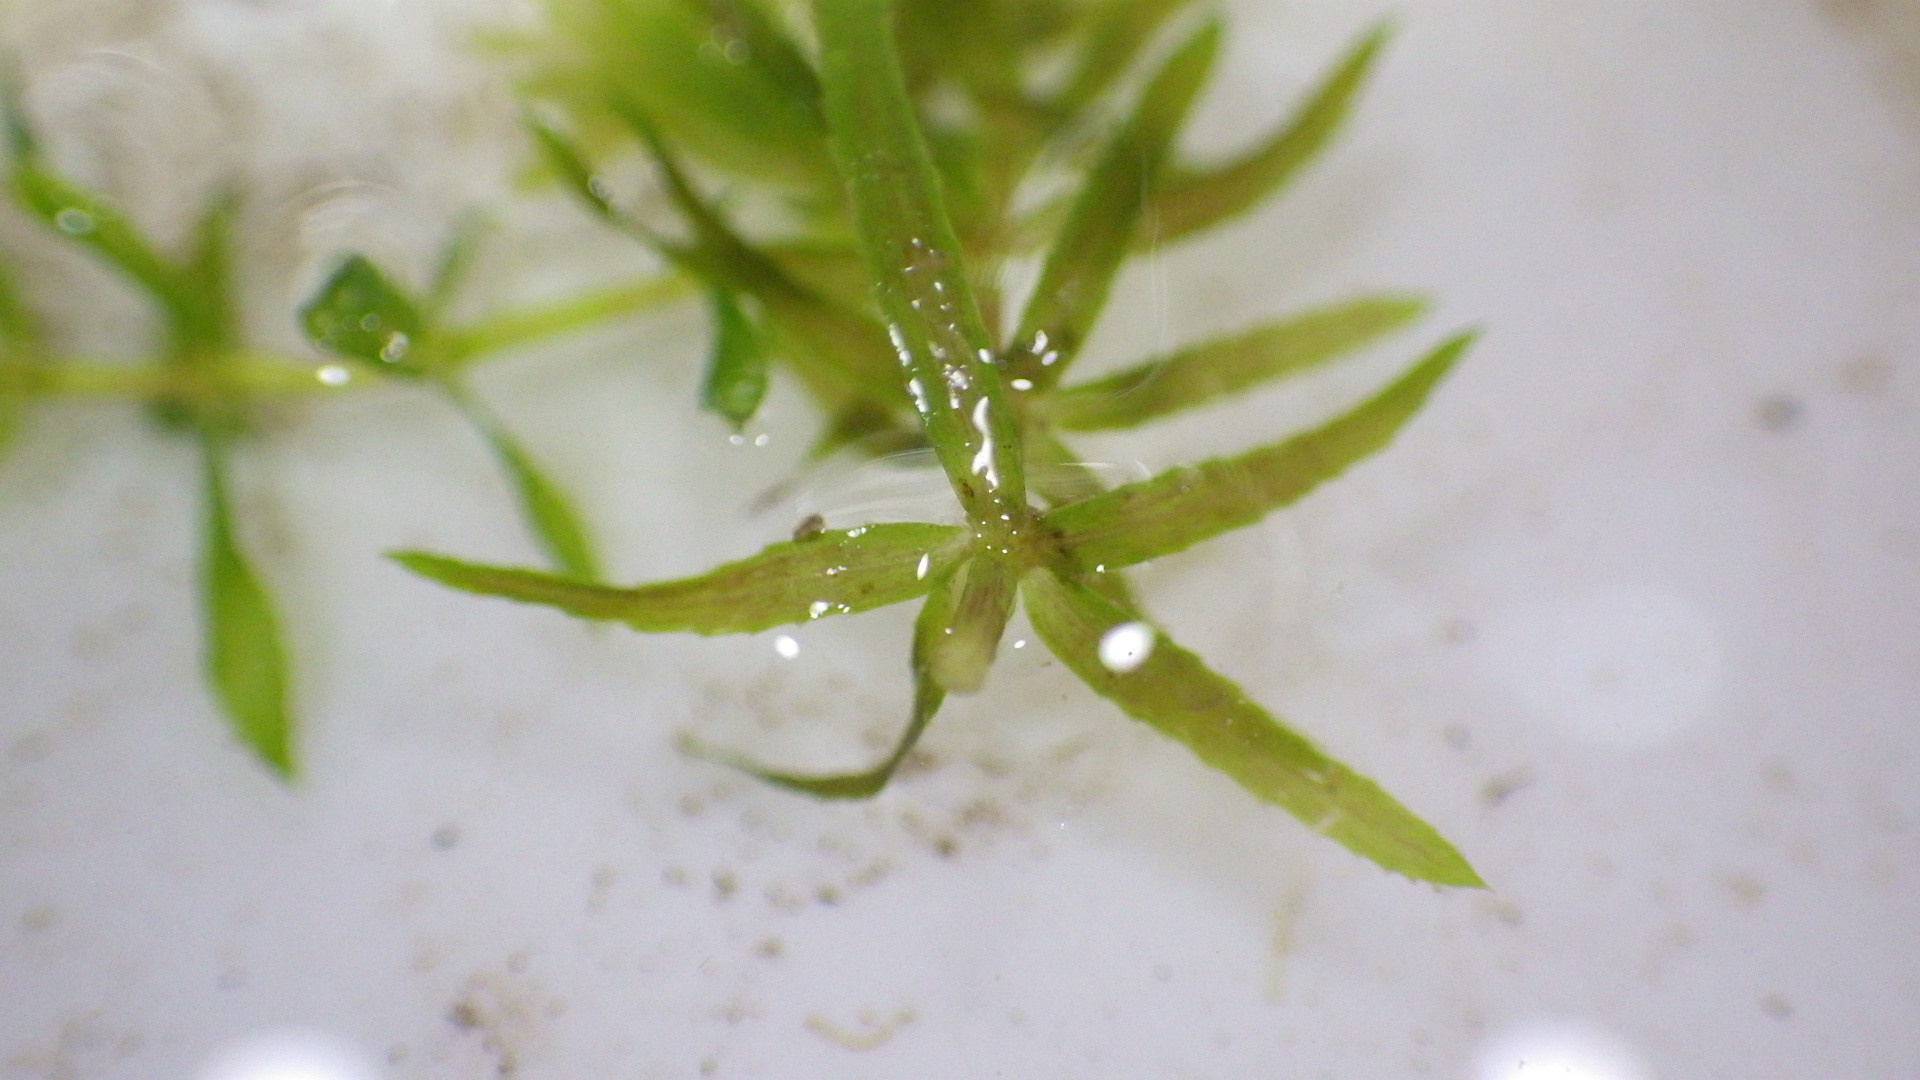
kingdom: Plantae
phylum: Tracheophyta
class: Liliopsida
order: Alismatales
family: Hydrocharitaceae
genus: Hydrilla
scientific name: Hydrilla verticillata
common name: Florida-elodea
